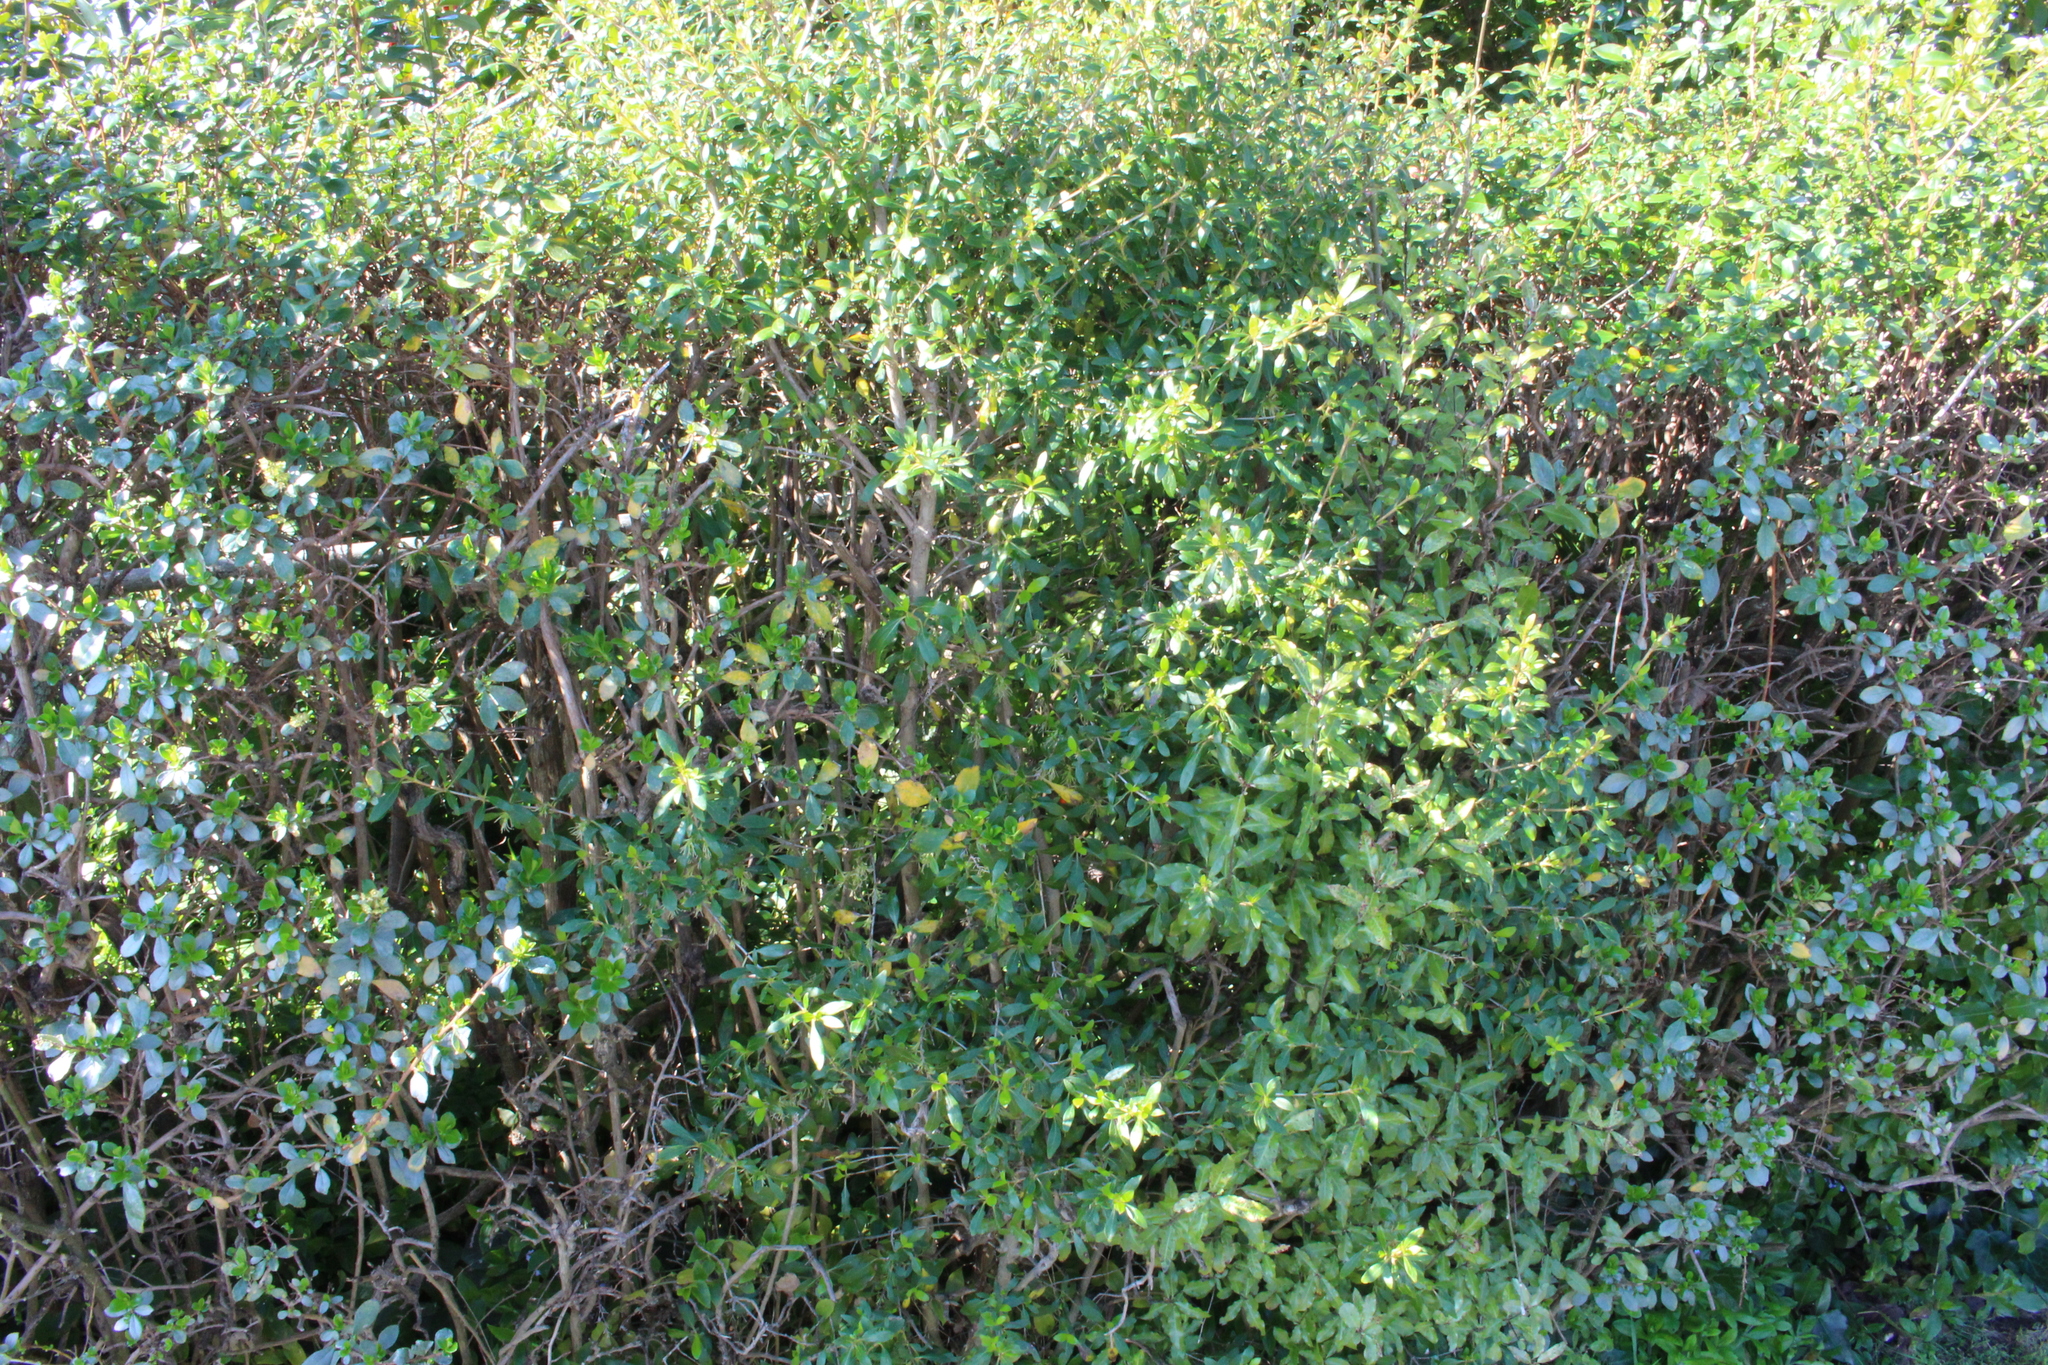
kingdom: Plantae
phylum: Tracheophyta
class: Magnoliopsida
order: Gentianales
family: Rubiaceae
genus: Coprosma
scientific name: Coprosma cunninghamii
